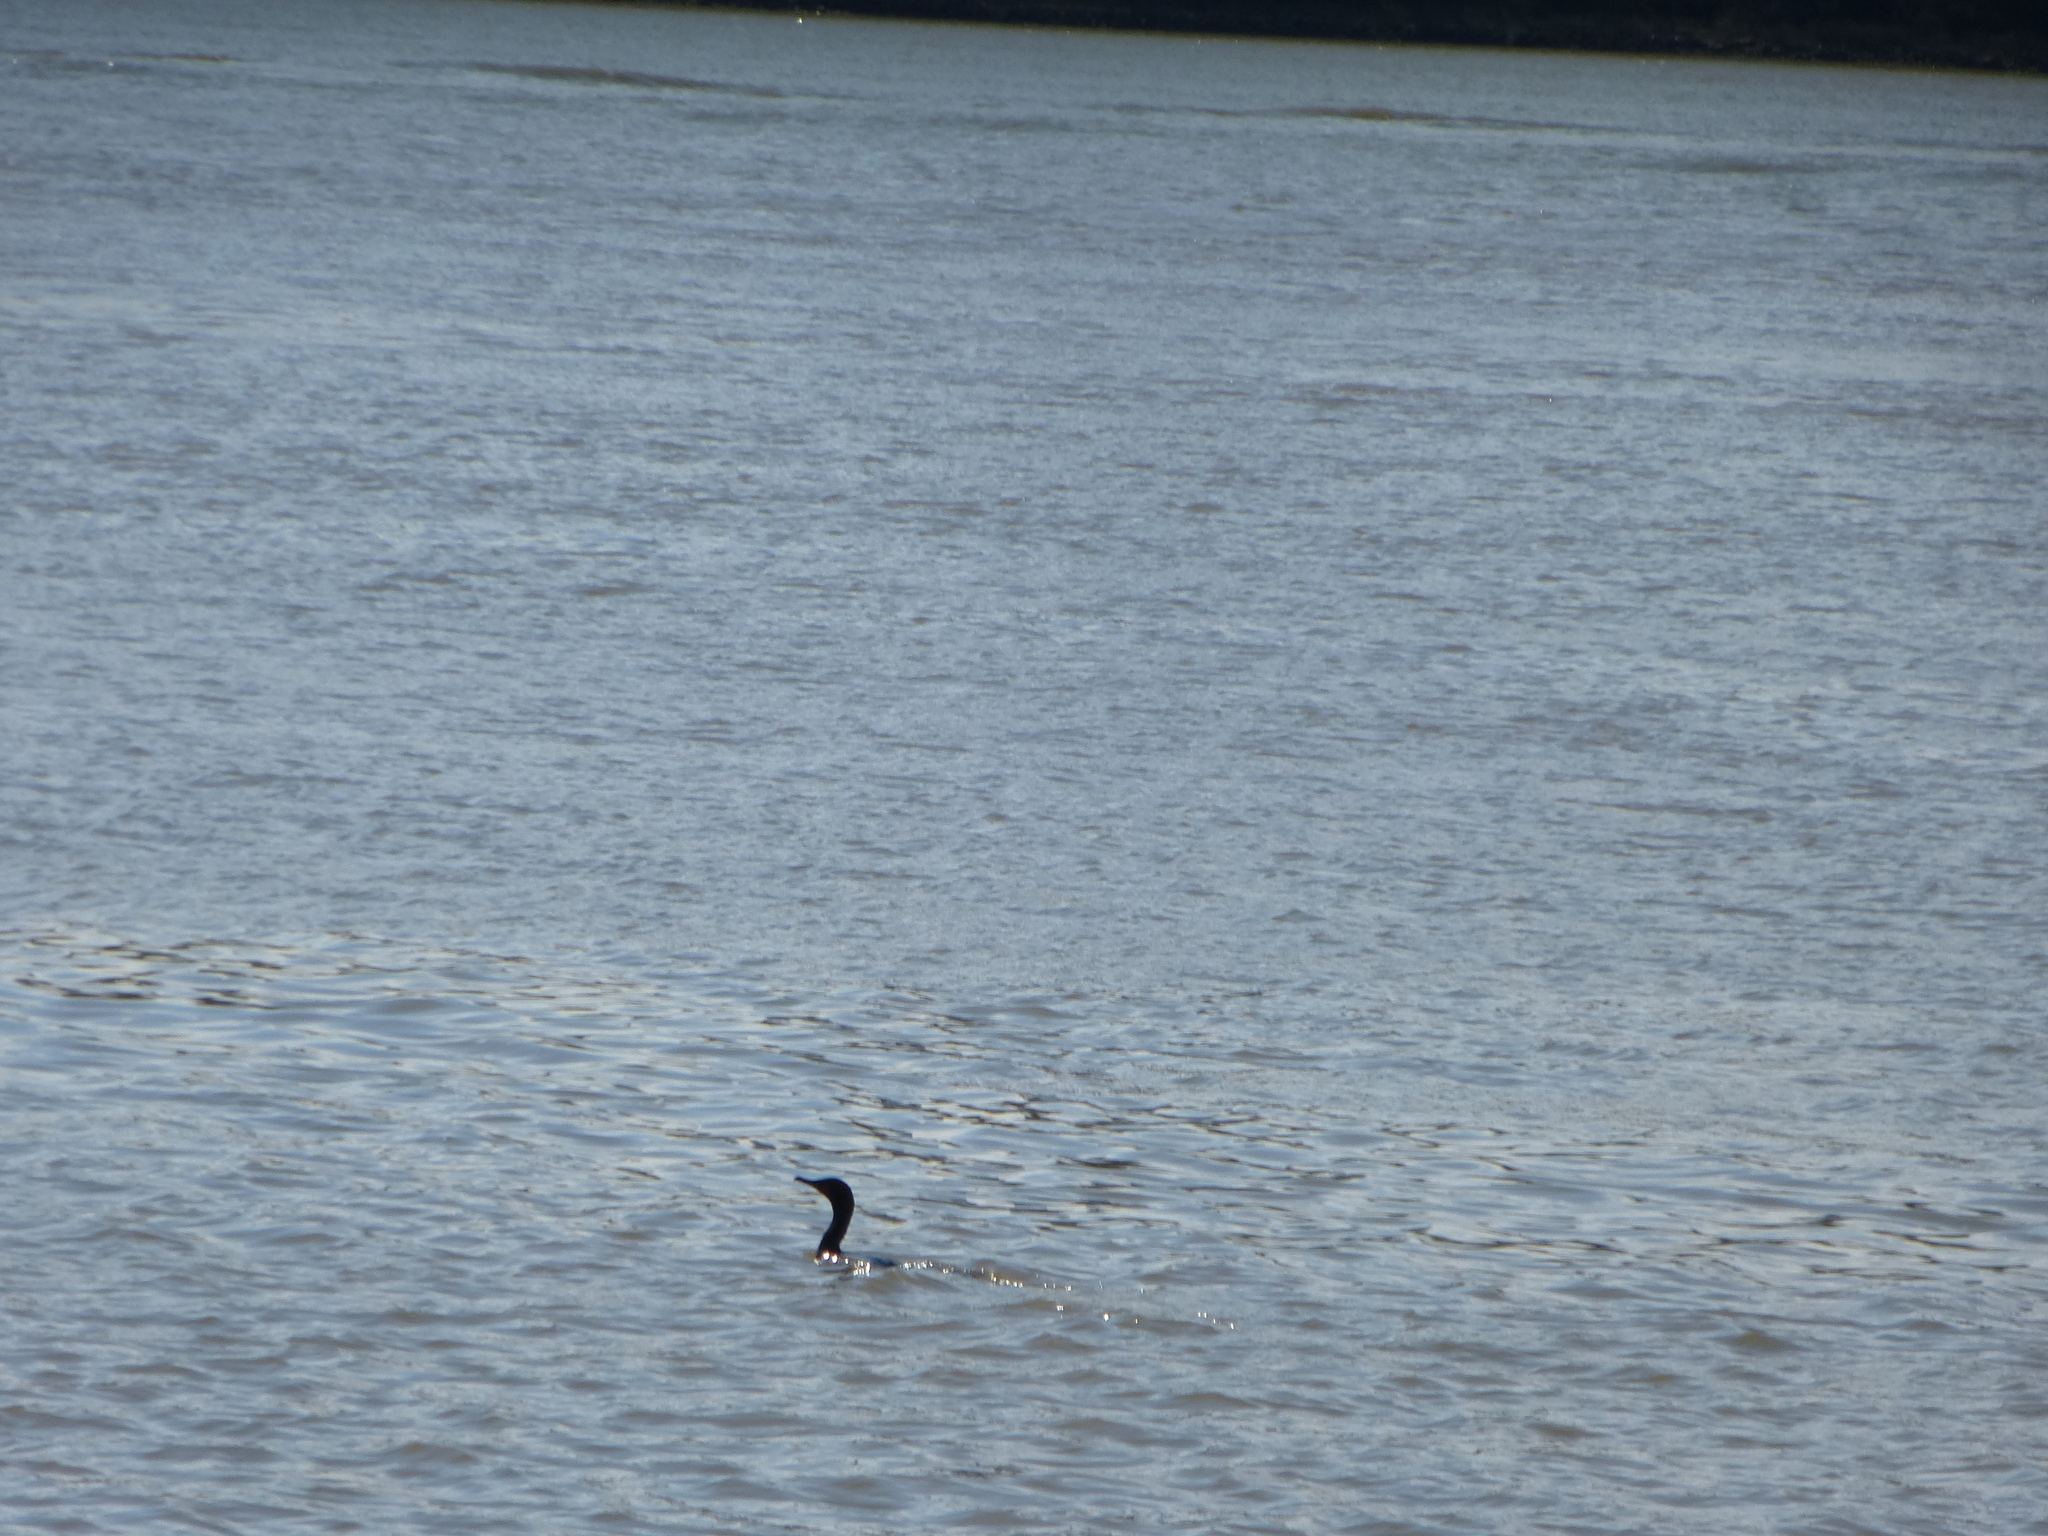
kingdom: Animalia
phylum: Chordata
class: Aves
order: Suliformes
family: Phalacrocoracidae
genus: Phalacrocorax
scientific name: Phalacrocorax auritus
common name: Double-crested cormorant
